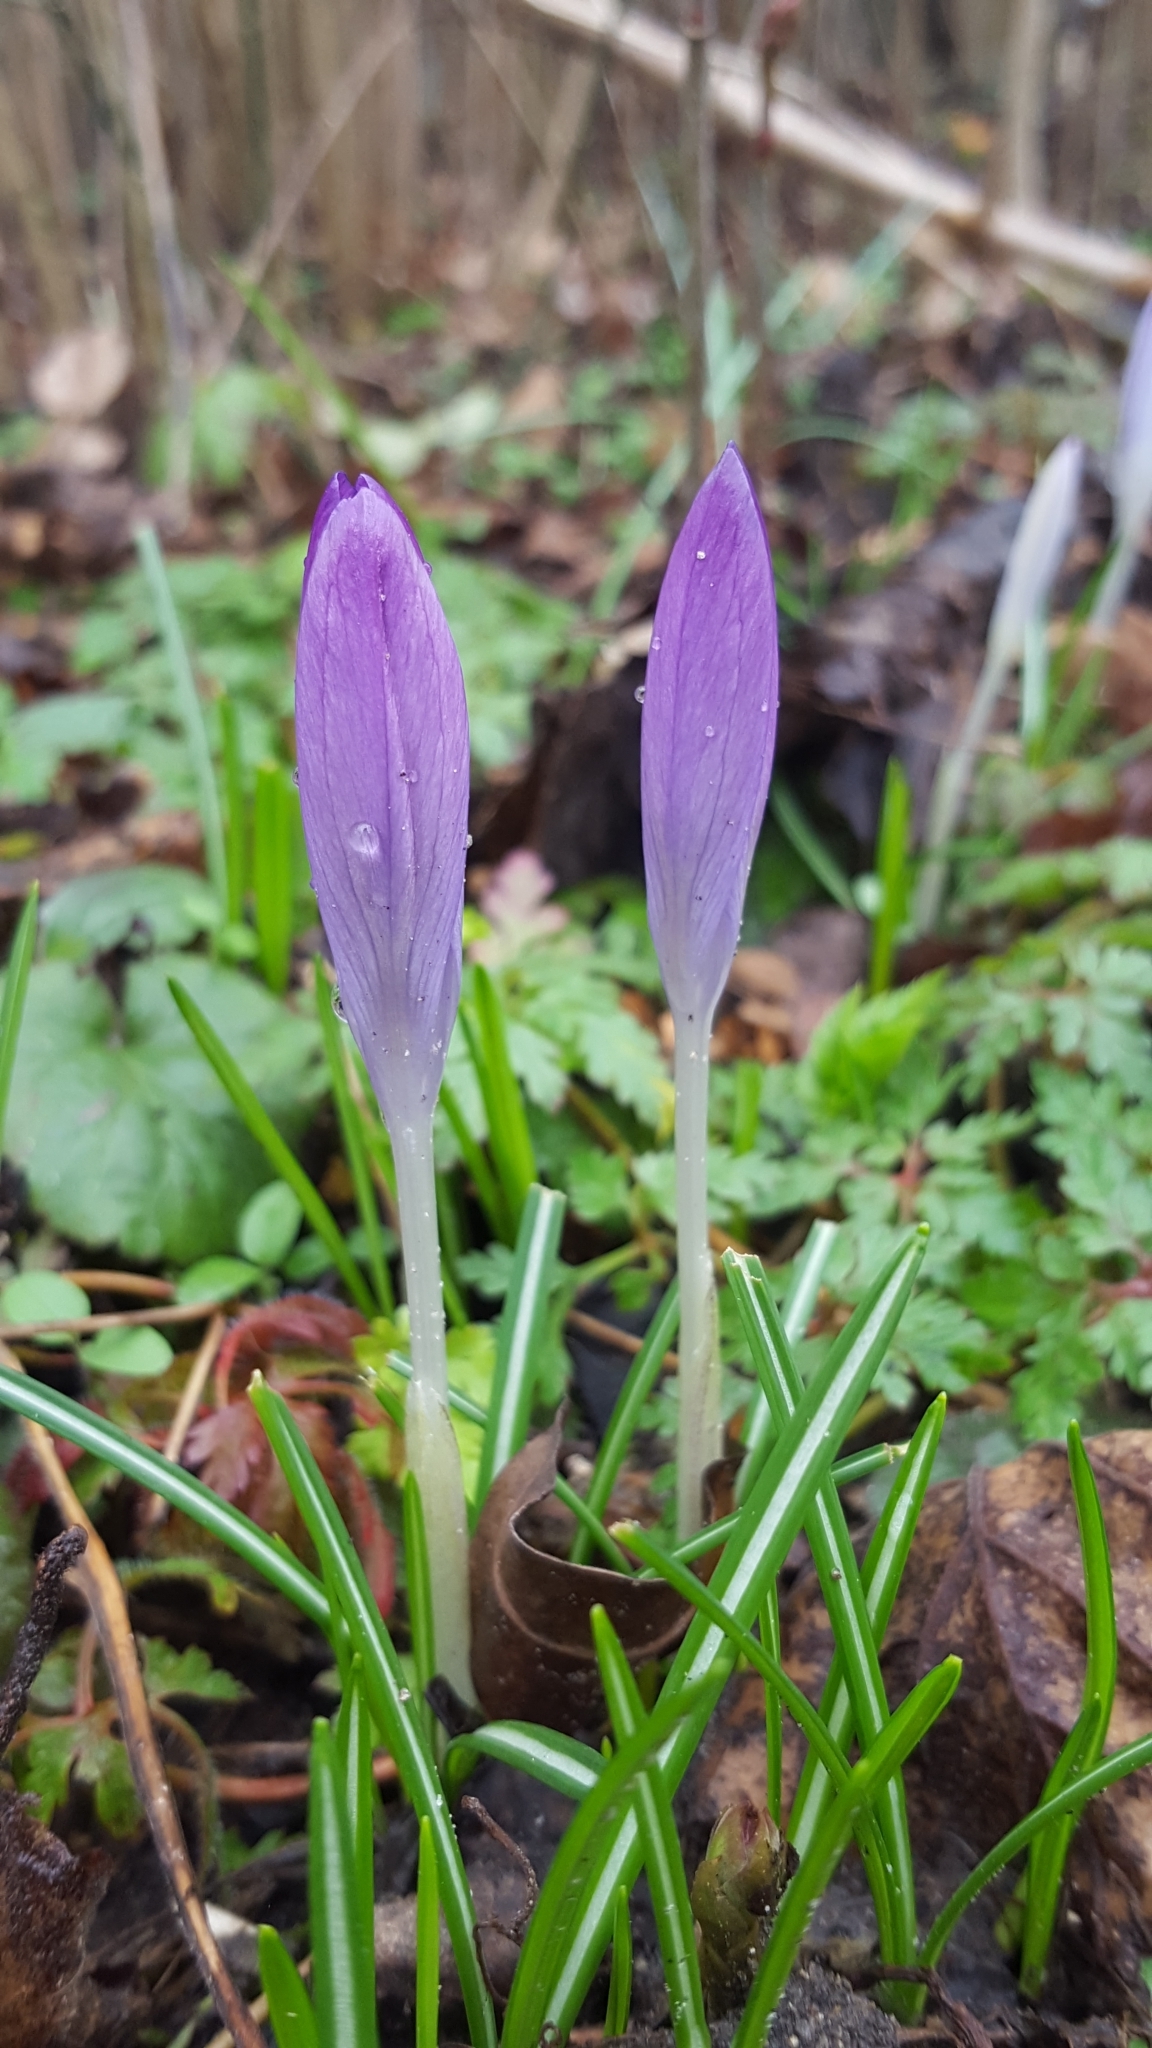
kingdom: Plantae
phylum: Tracheophyta
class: Liliopsida
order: Asparagales
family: Iridaceae
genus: Crocus
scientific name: Crocus tommasinianus
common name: Early crocus
